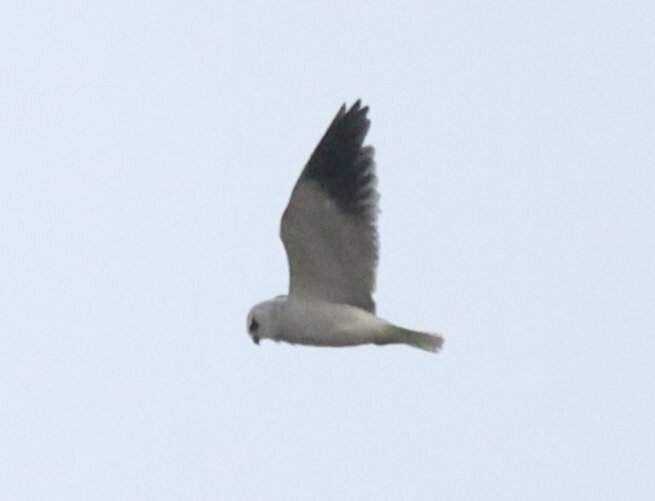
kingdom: Animalia
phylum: Chordata
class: Aves
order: Accipitriformes
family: Accipitridae
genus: Elanus
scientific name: Elanus caeruleus
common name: Black-winged kite
